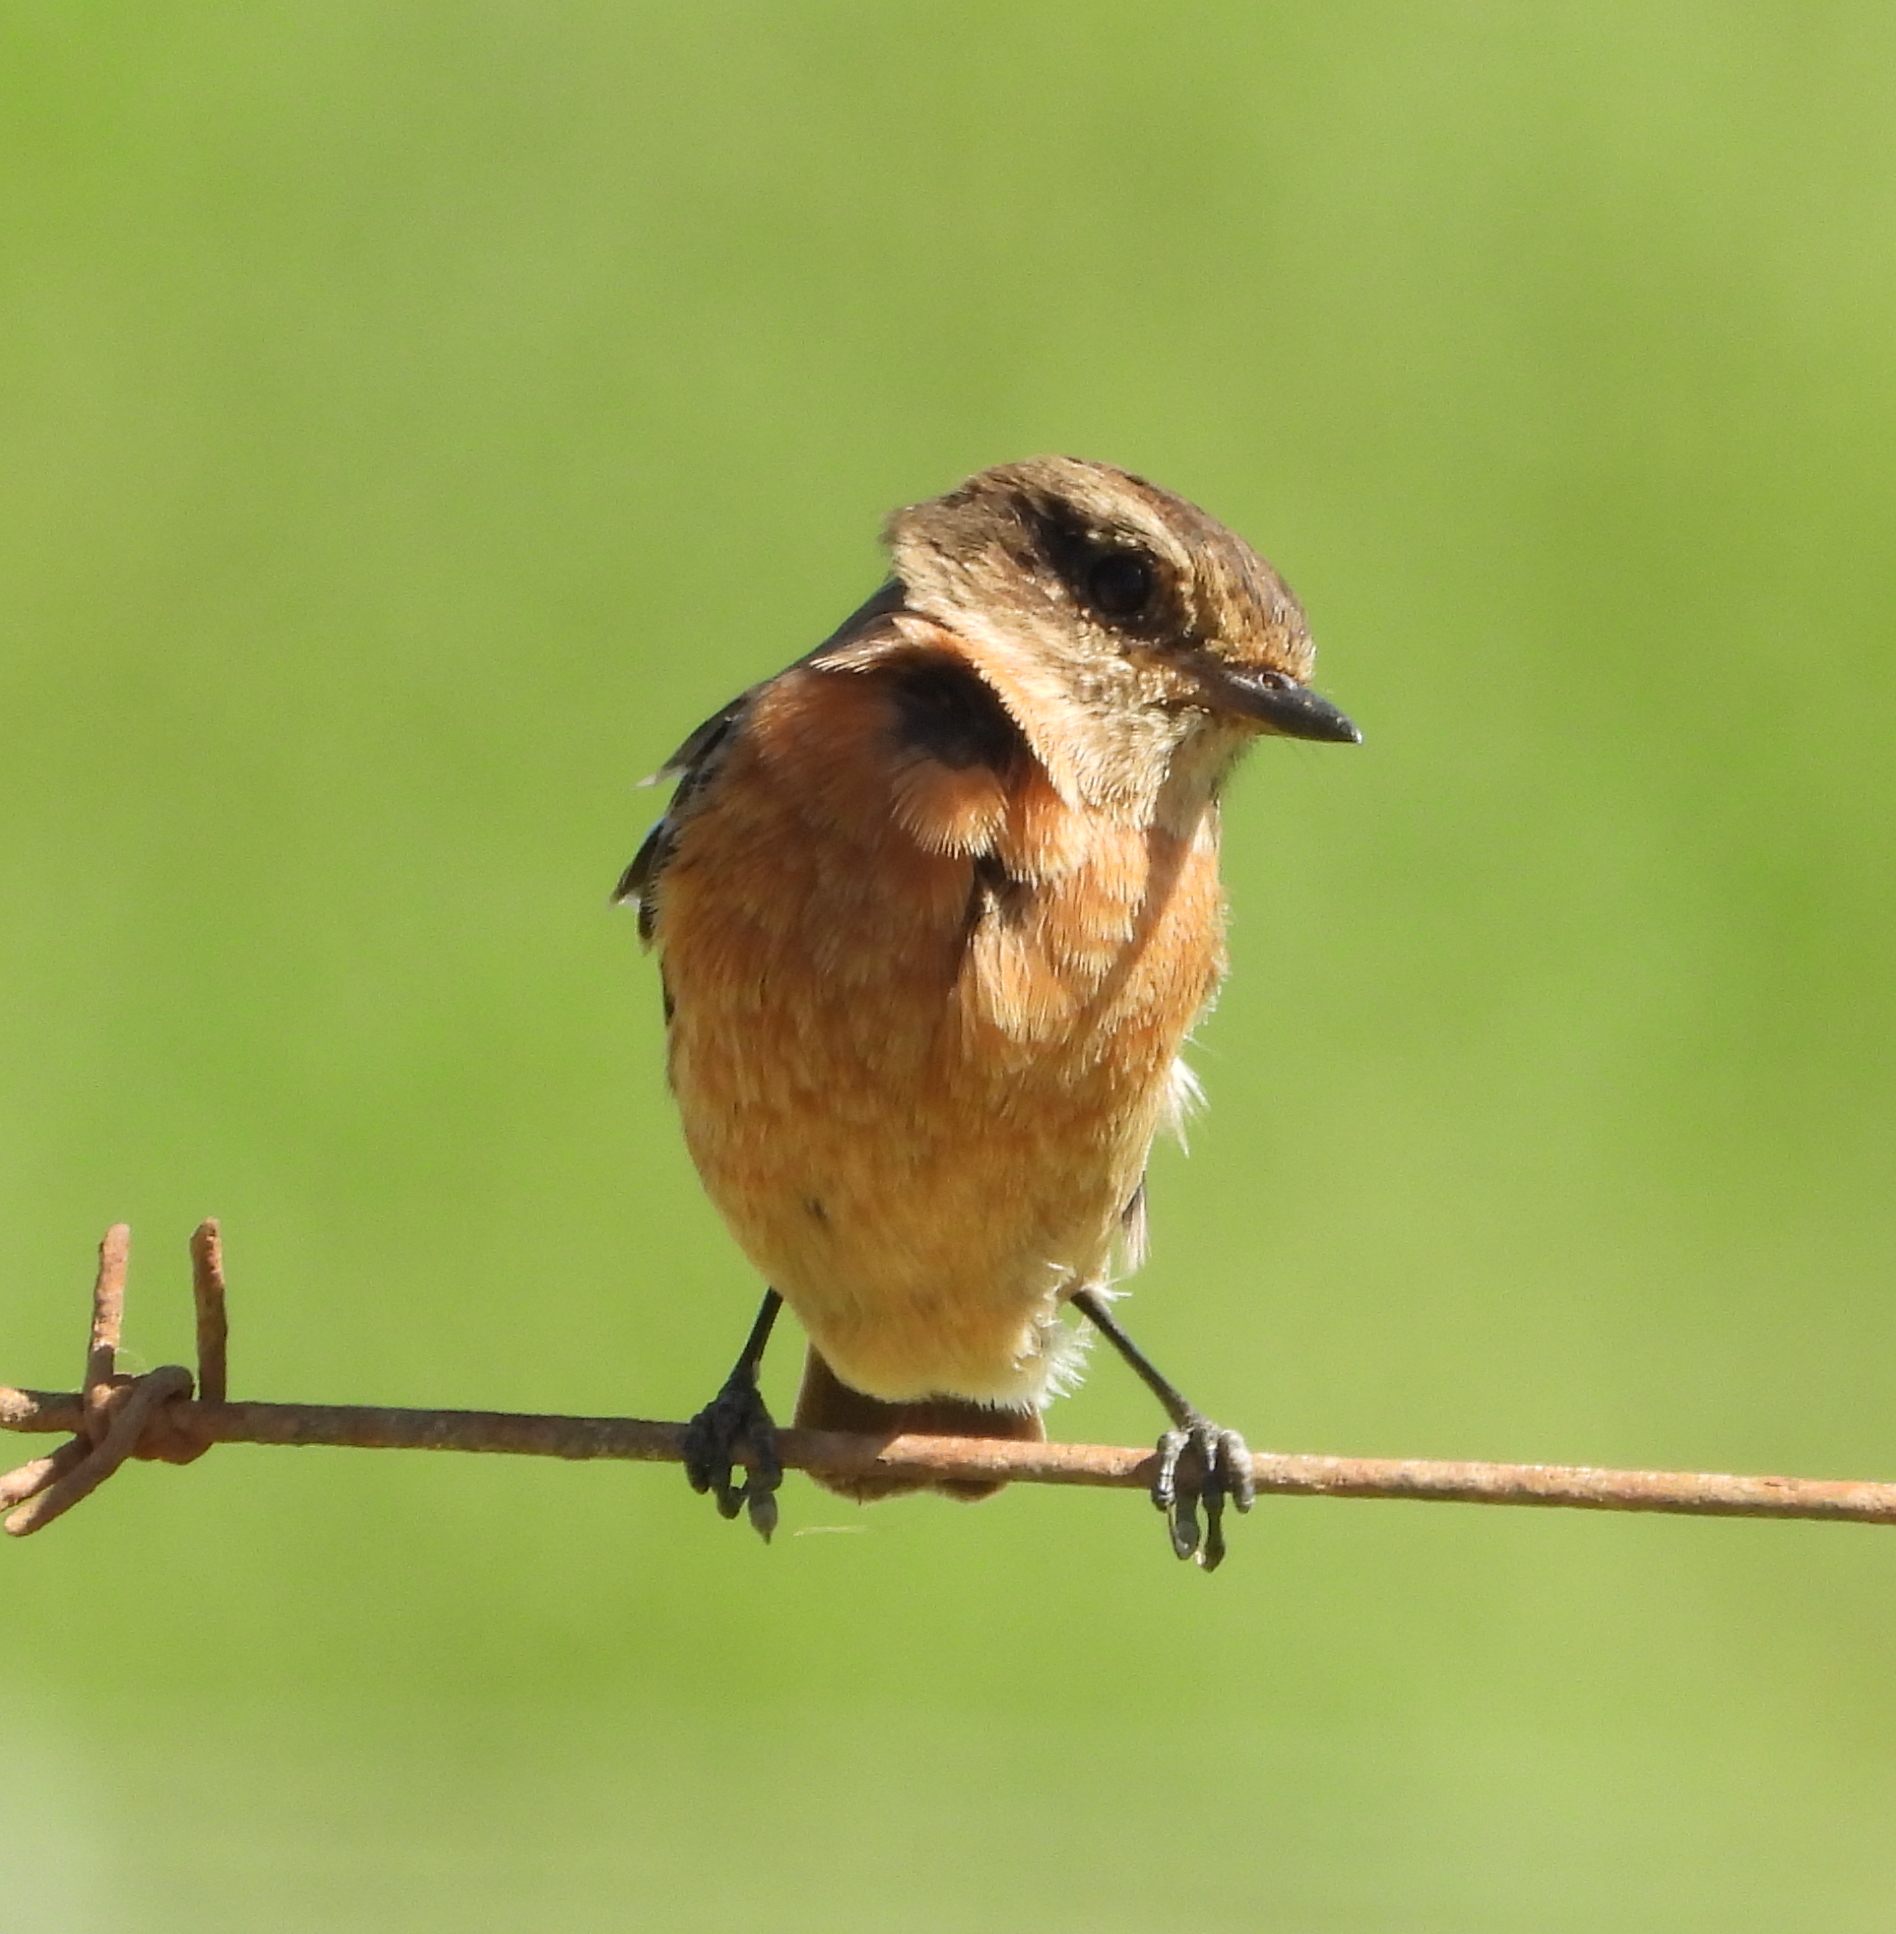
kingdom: Animalia
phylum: Chordata
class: Aves
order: Passeriformes
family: Muscicapidae
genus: Saxicola
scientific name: Saxicola torquatus
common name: African stonechat
